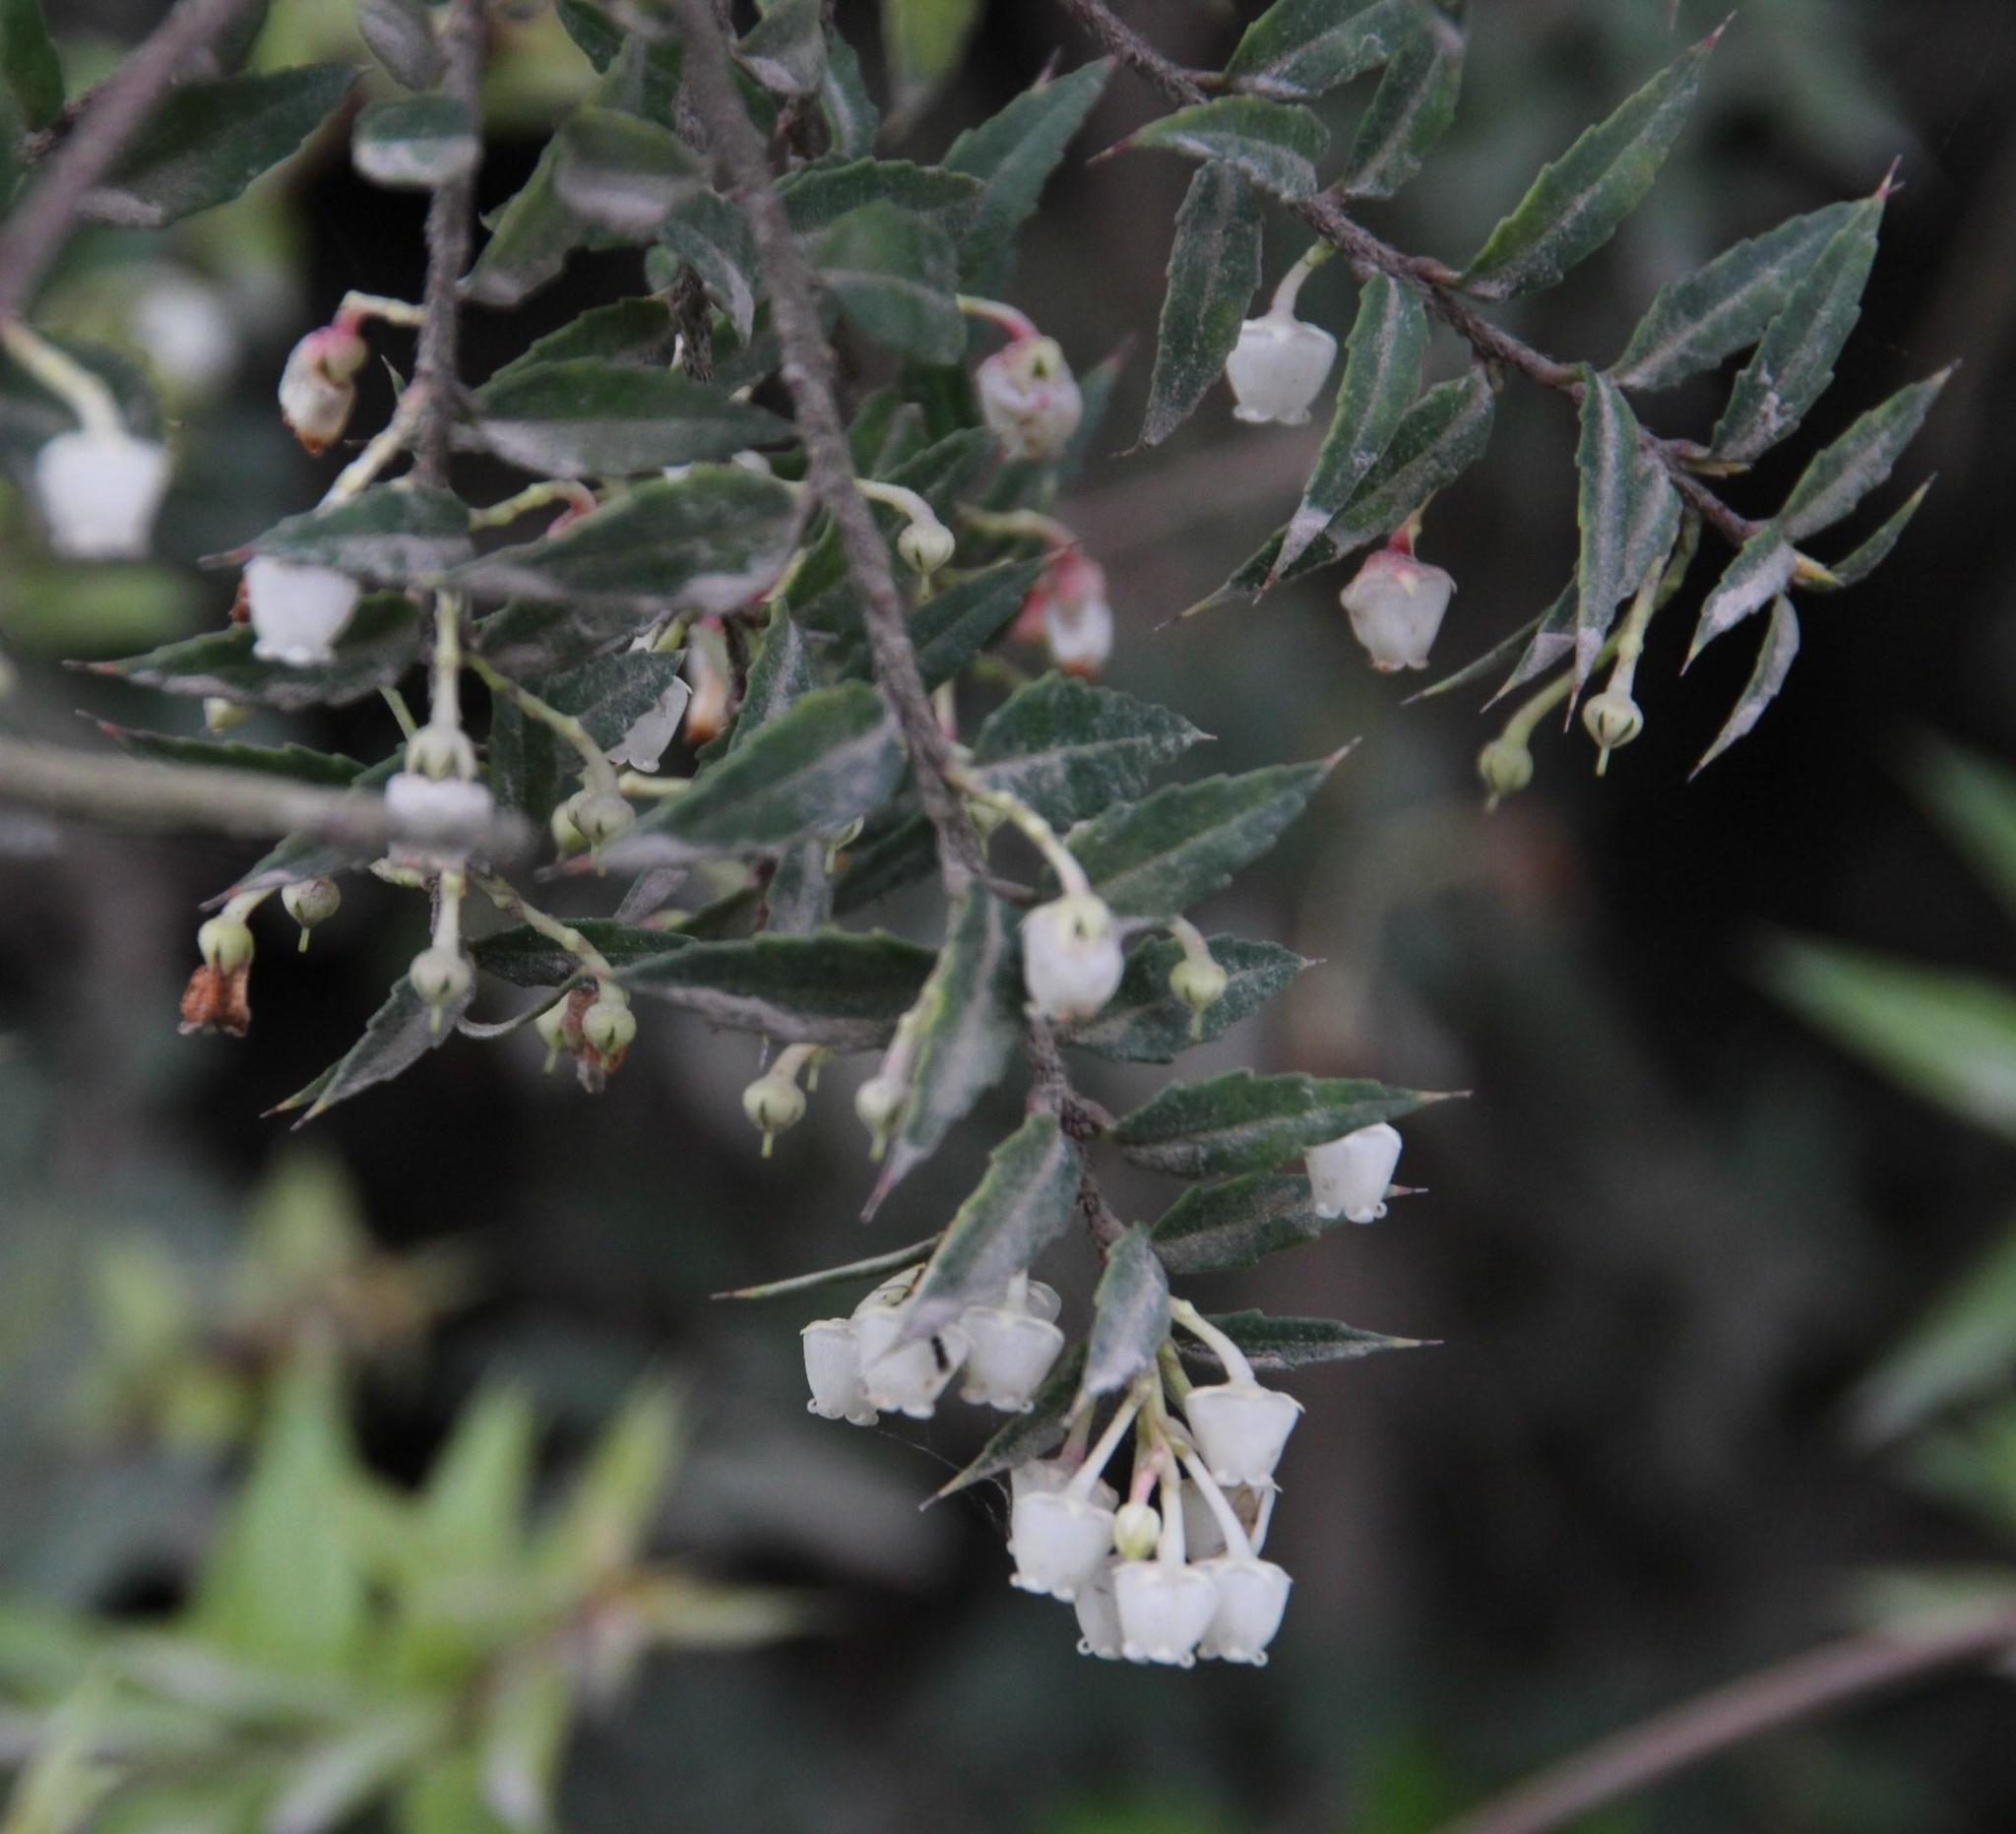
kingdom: Plantae
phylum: Tracheophyta
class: Magnoliopsida
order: Ericales
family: Ericaceae
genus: Gaultheria
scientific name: Gaultheria phillyreifolia
